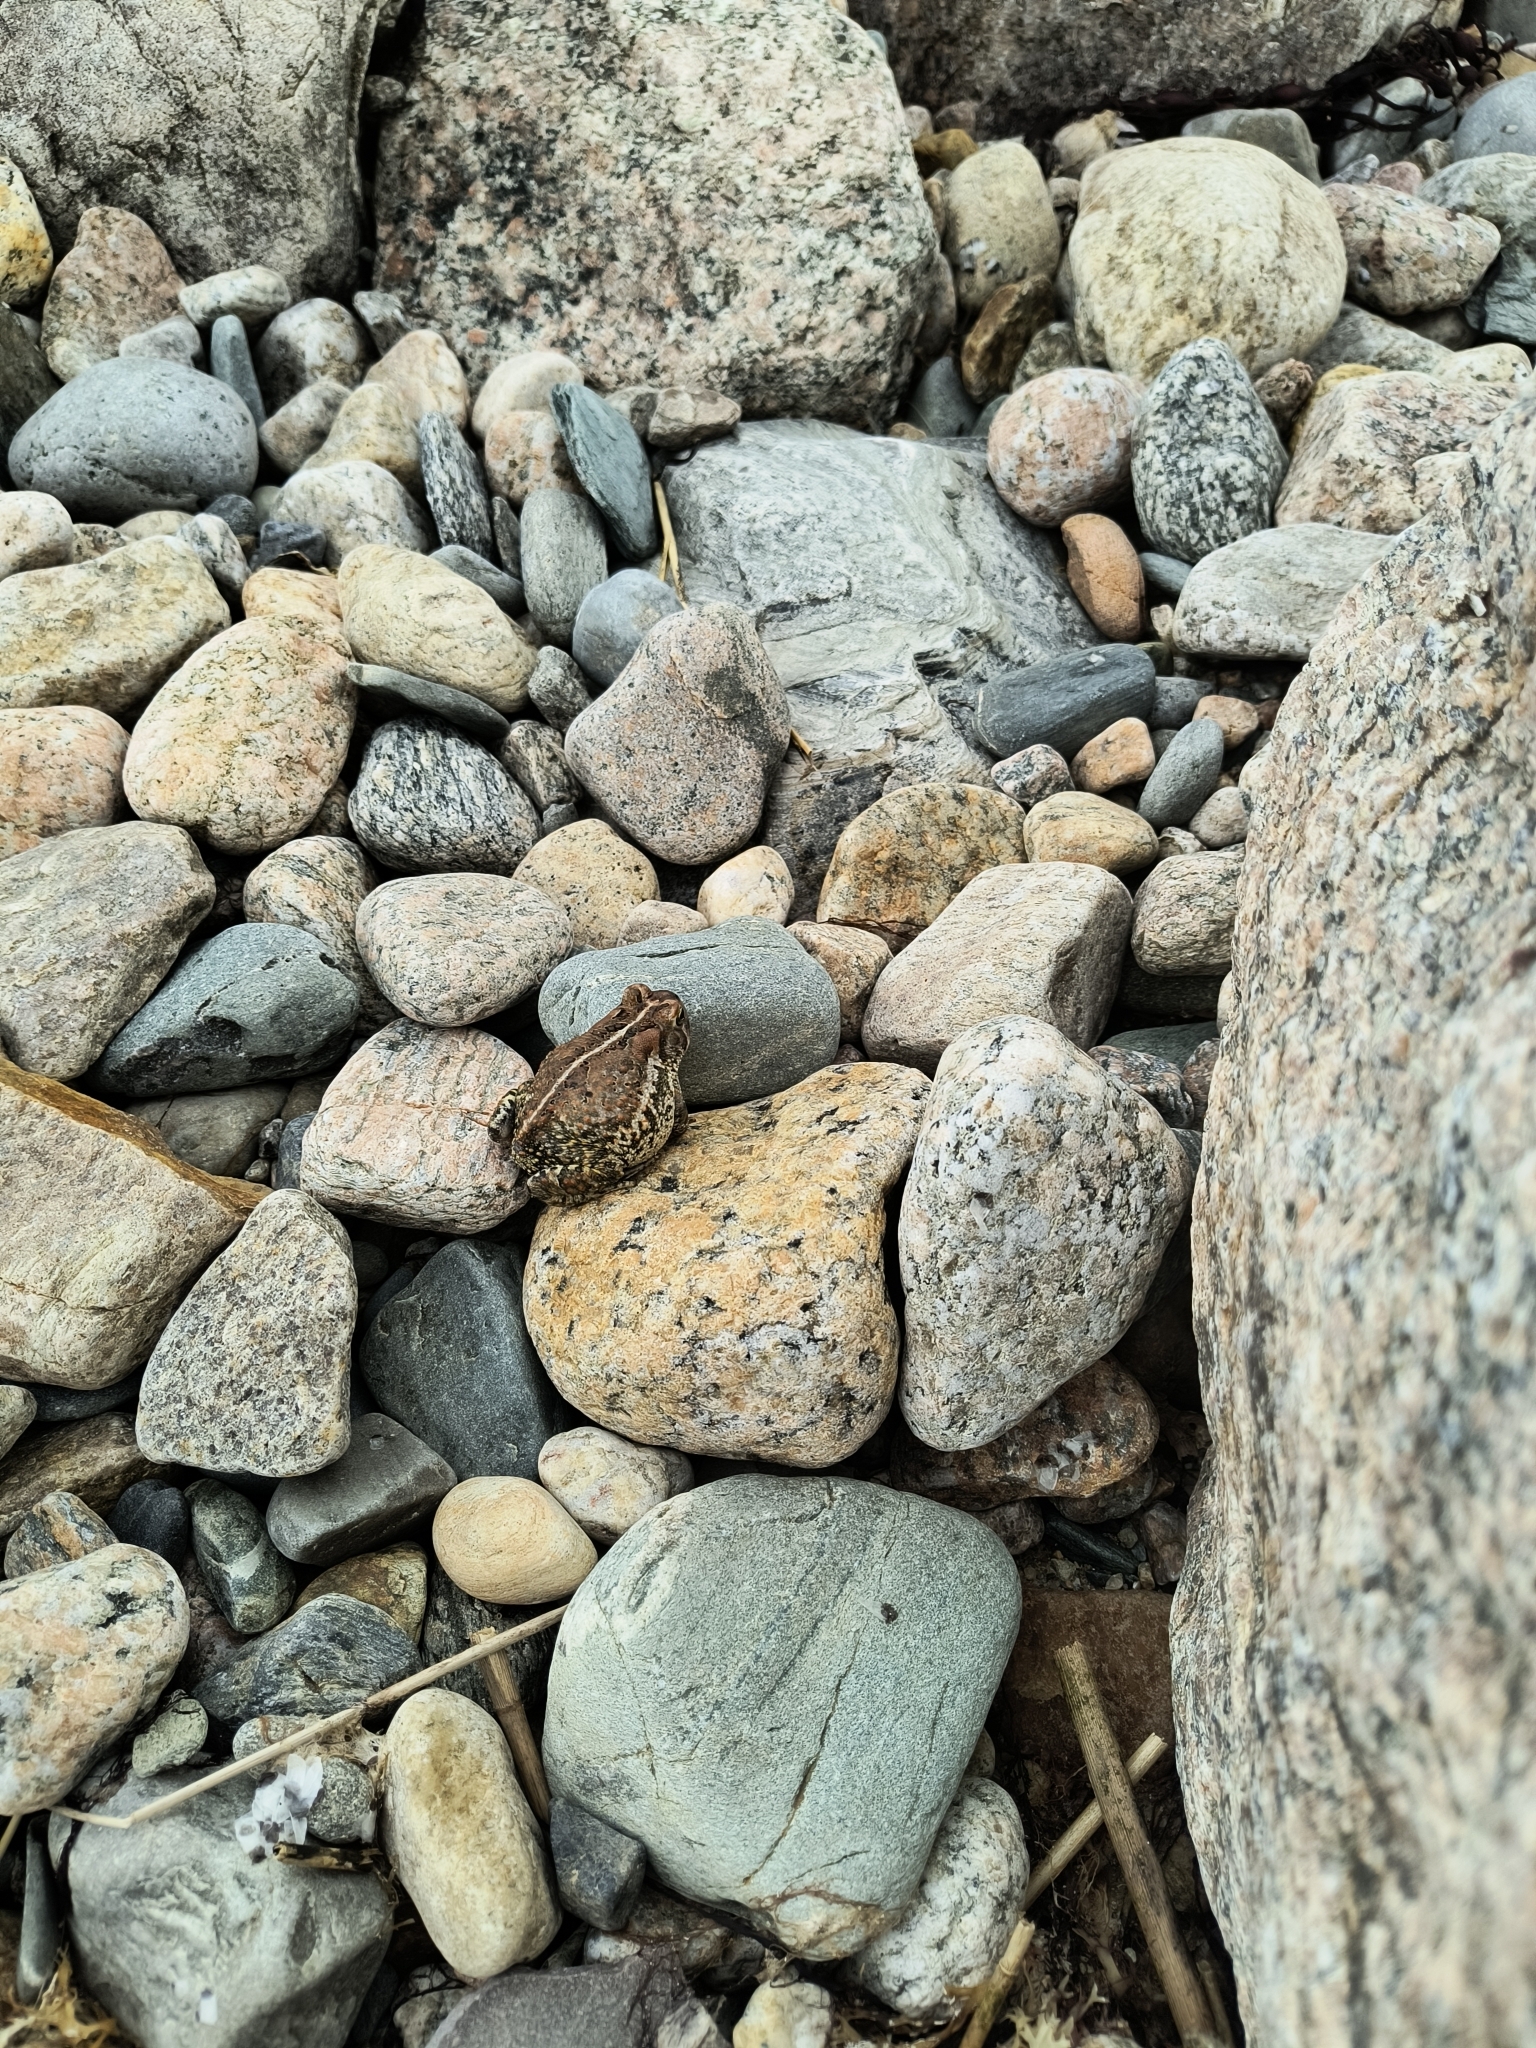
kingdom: Animalia
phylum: Chordata
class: Amphibia
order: Anura
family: Bufonidae
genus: Anaxyrus
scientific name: Anaxyrus americanus
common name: American toad
